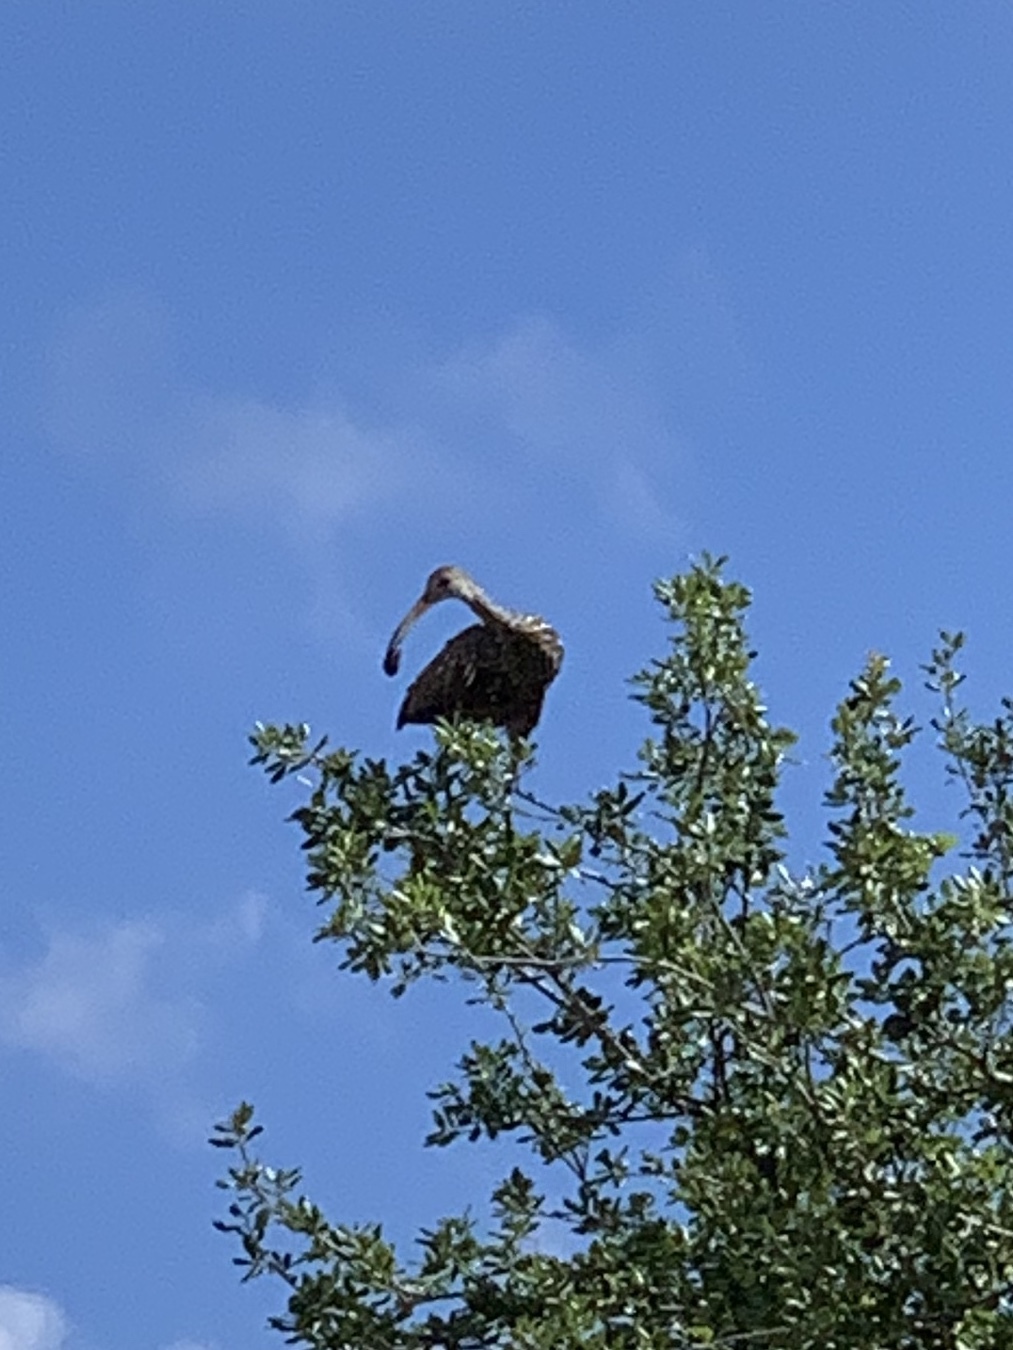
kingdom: Animalia
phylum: Chordata
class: Aves
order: Gruiformes
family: Aramidae
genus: Aramus
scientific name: Aramus guarauna
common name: Limpkin
